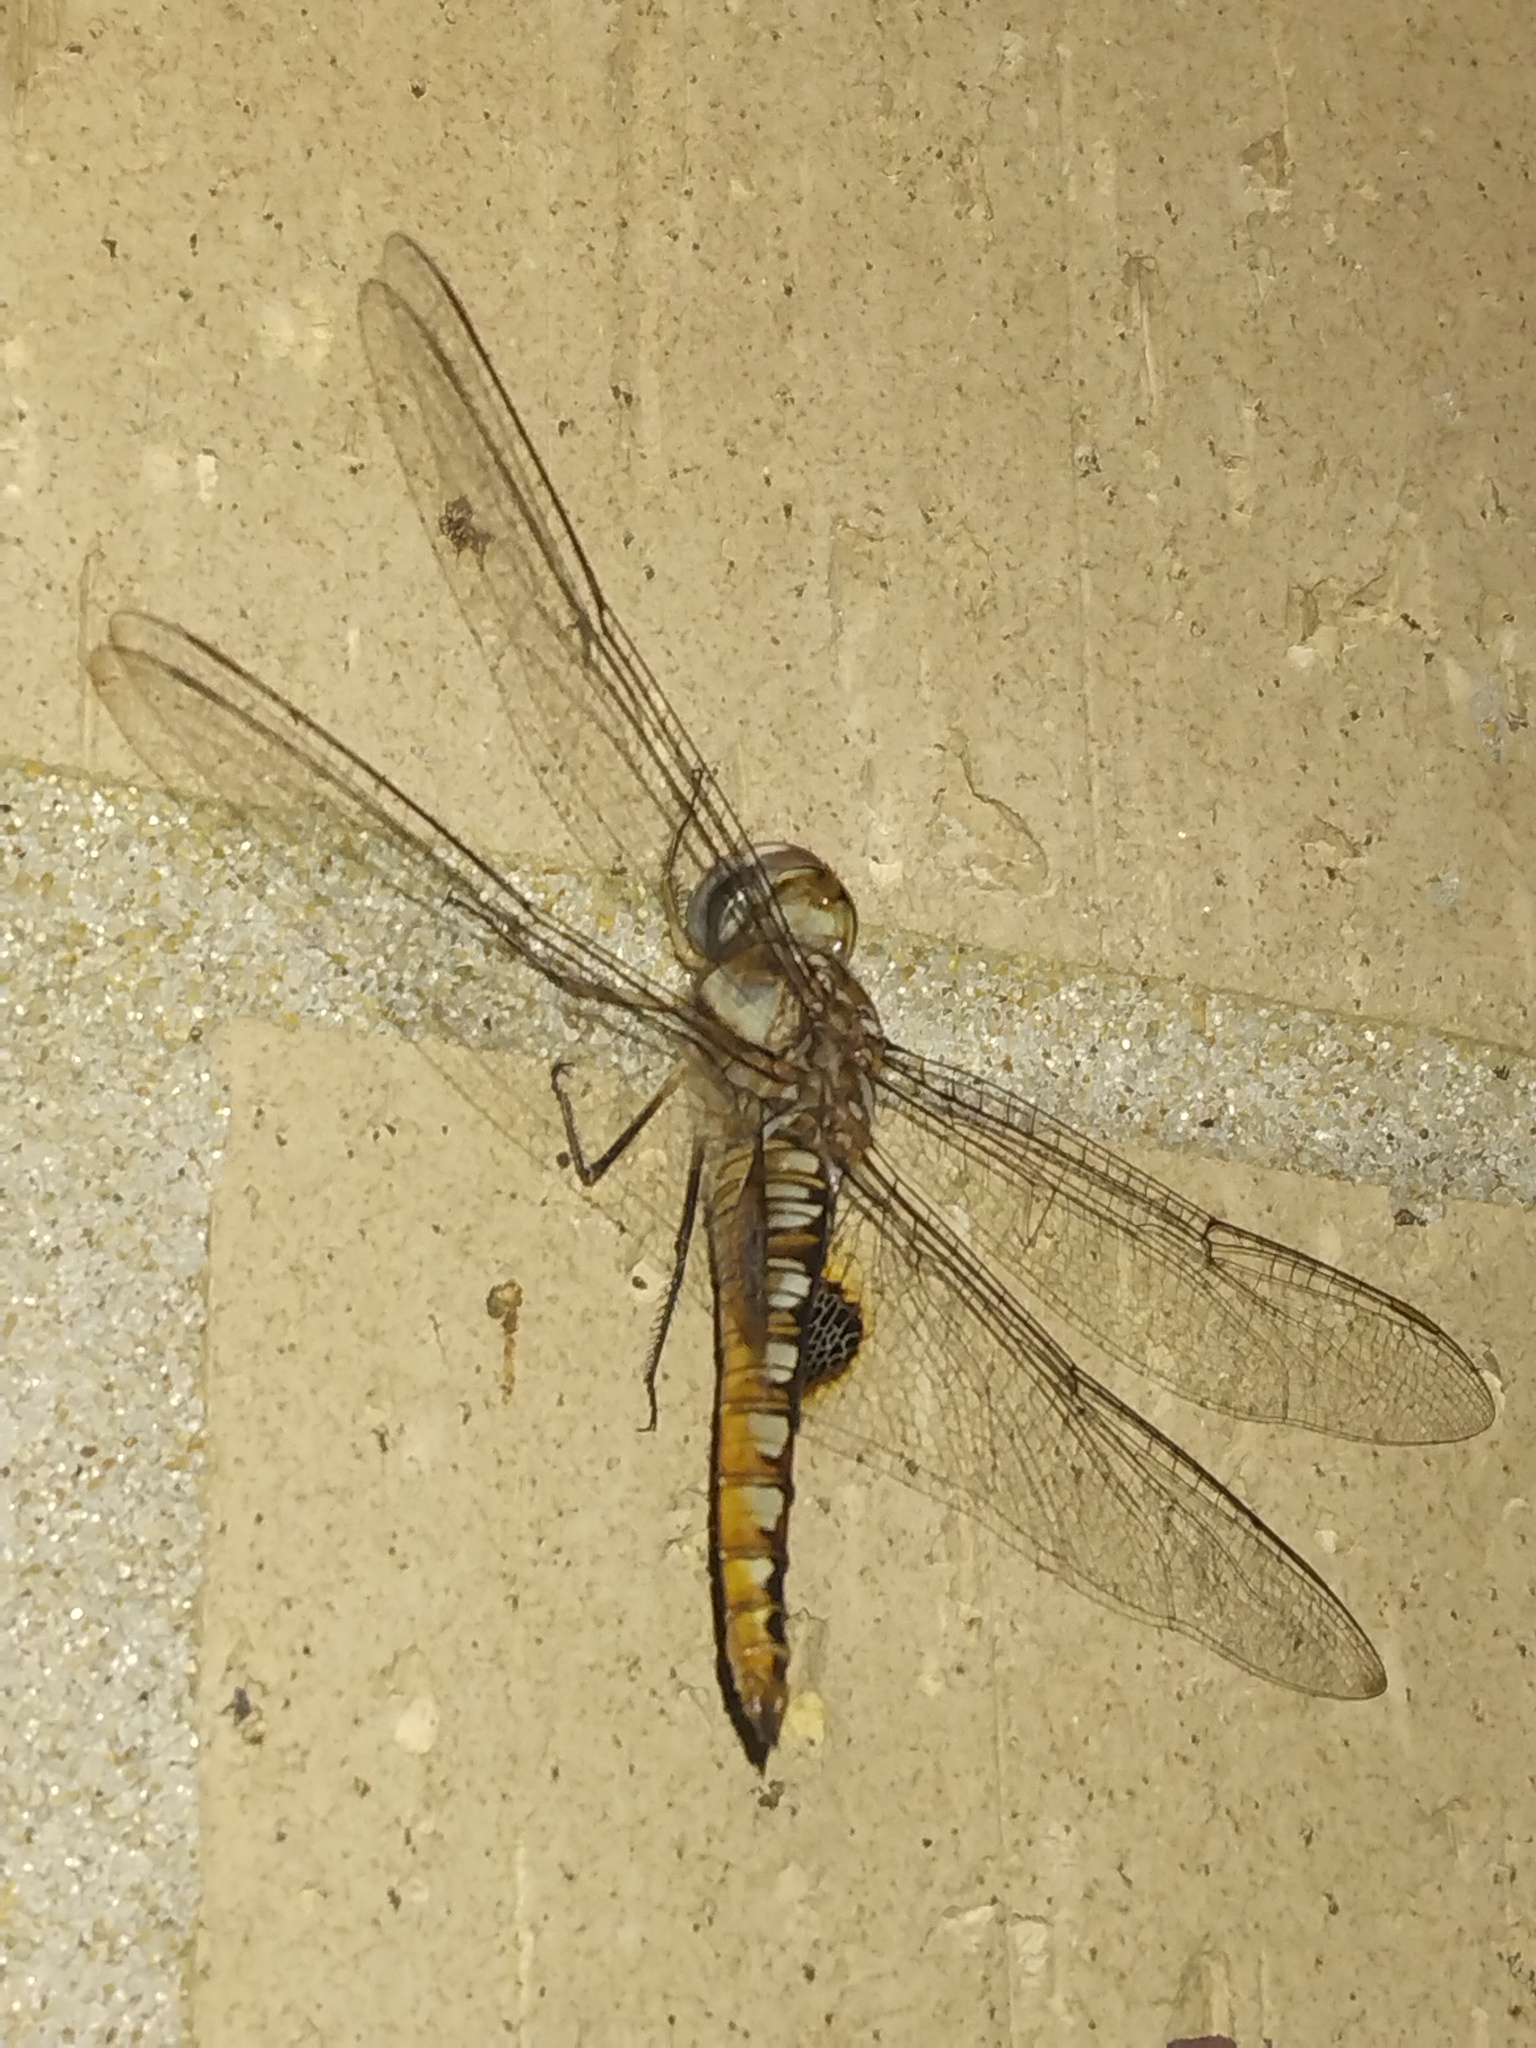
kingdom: Animalia
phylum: Arthropoda
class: Insecta
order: Odonata
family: Libellulidae
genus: Pantala
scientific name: Pantala hymenaea
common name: Spot-winged glider
